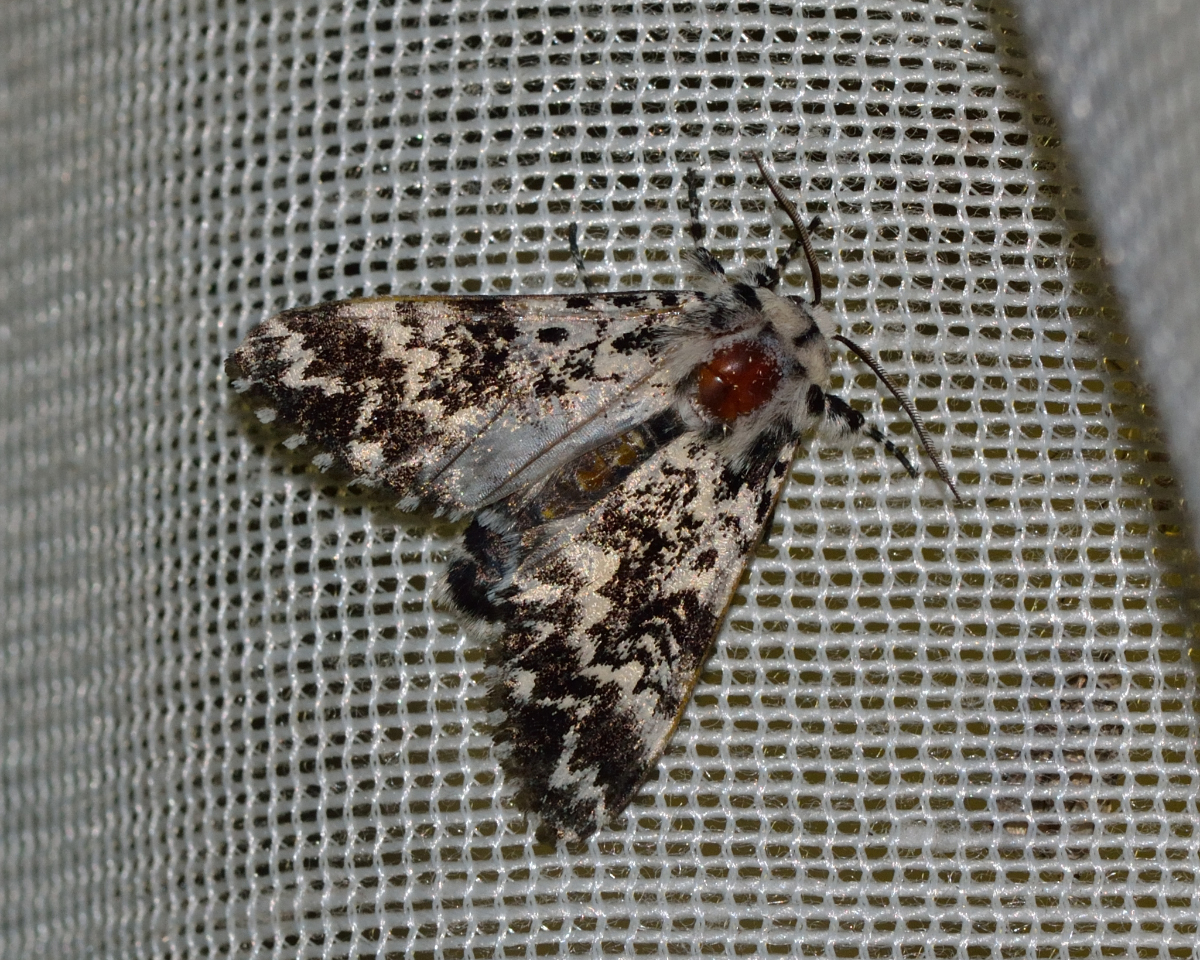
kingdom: Animalia
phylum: Arthropoda
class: Insecta
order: Lepidoptera
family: Noctuidae
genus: Panthea
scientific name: Panthea coenobita
